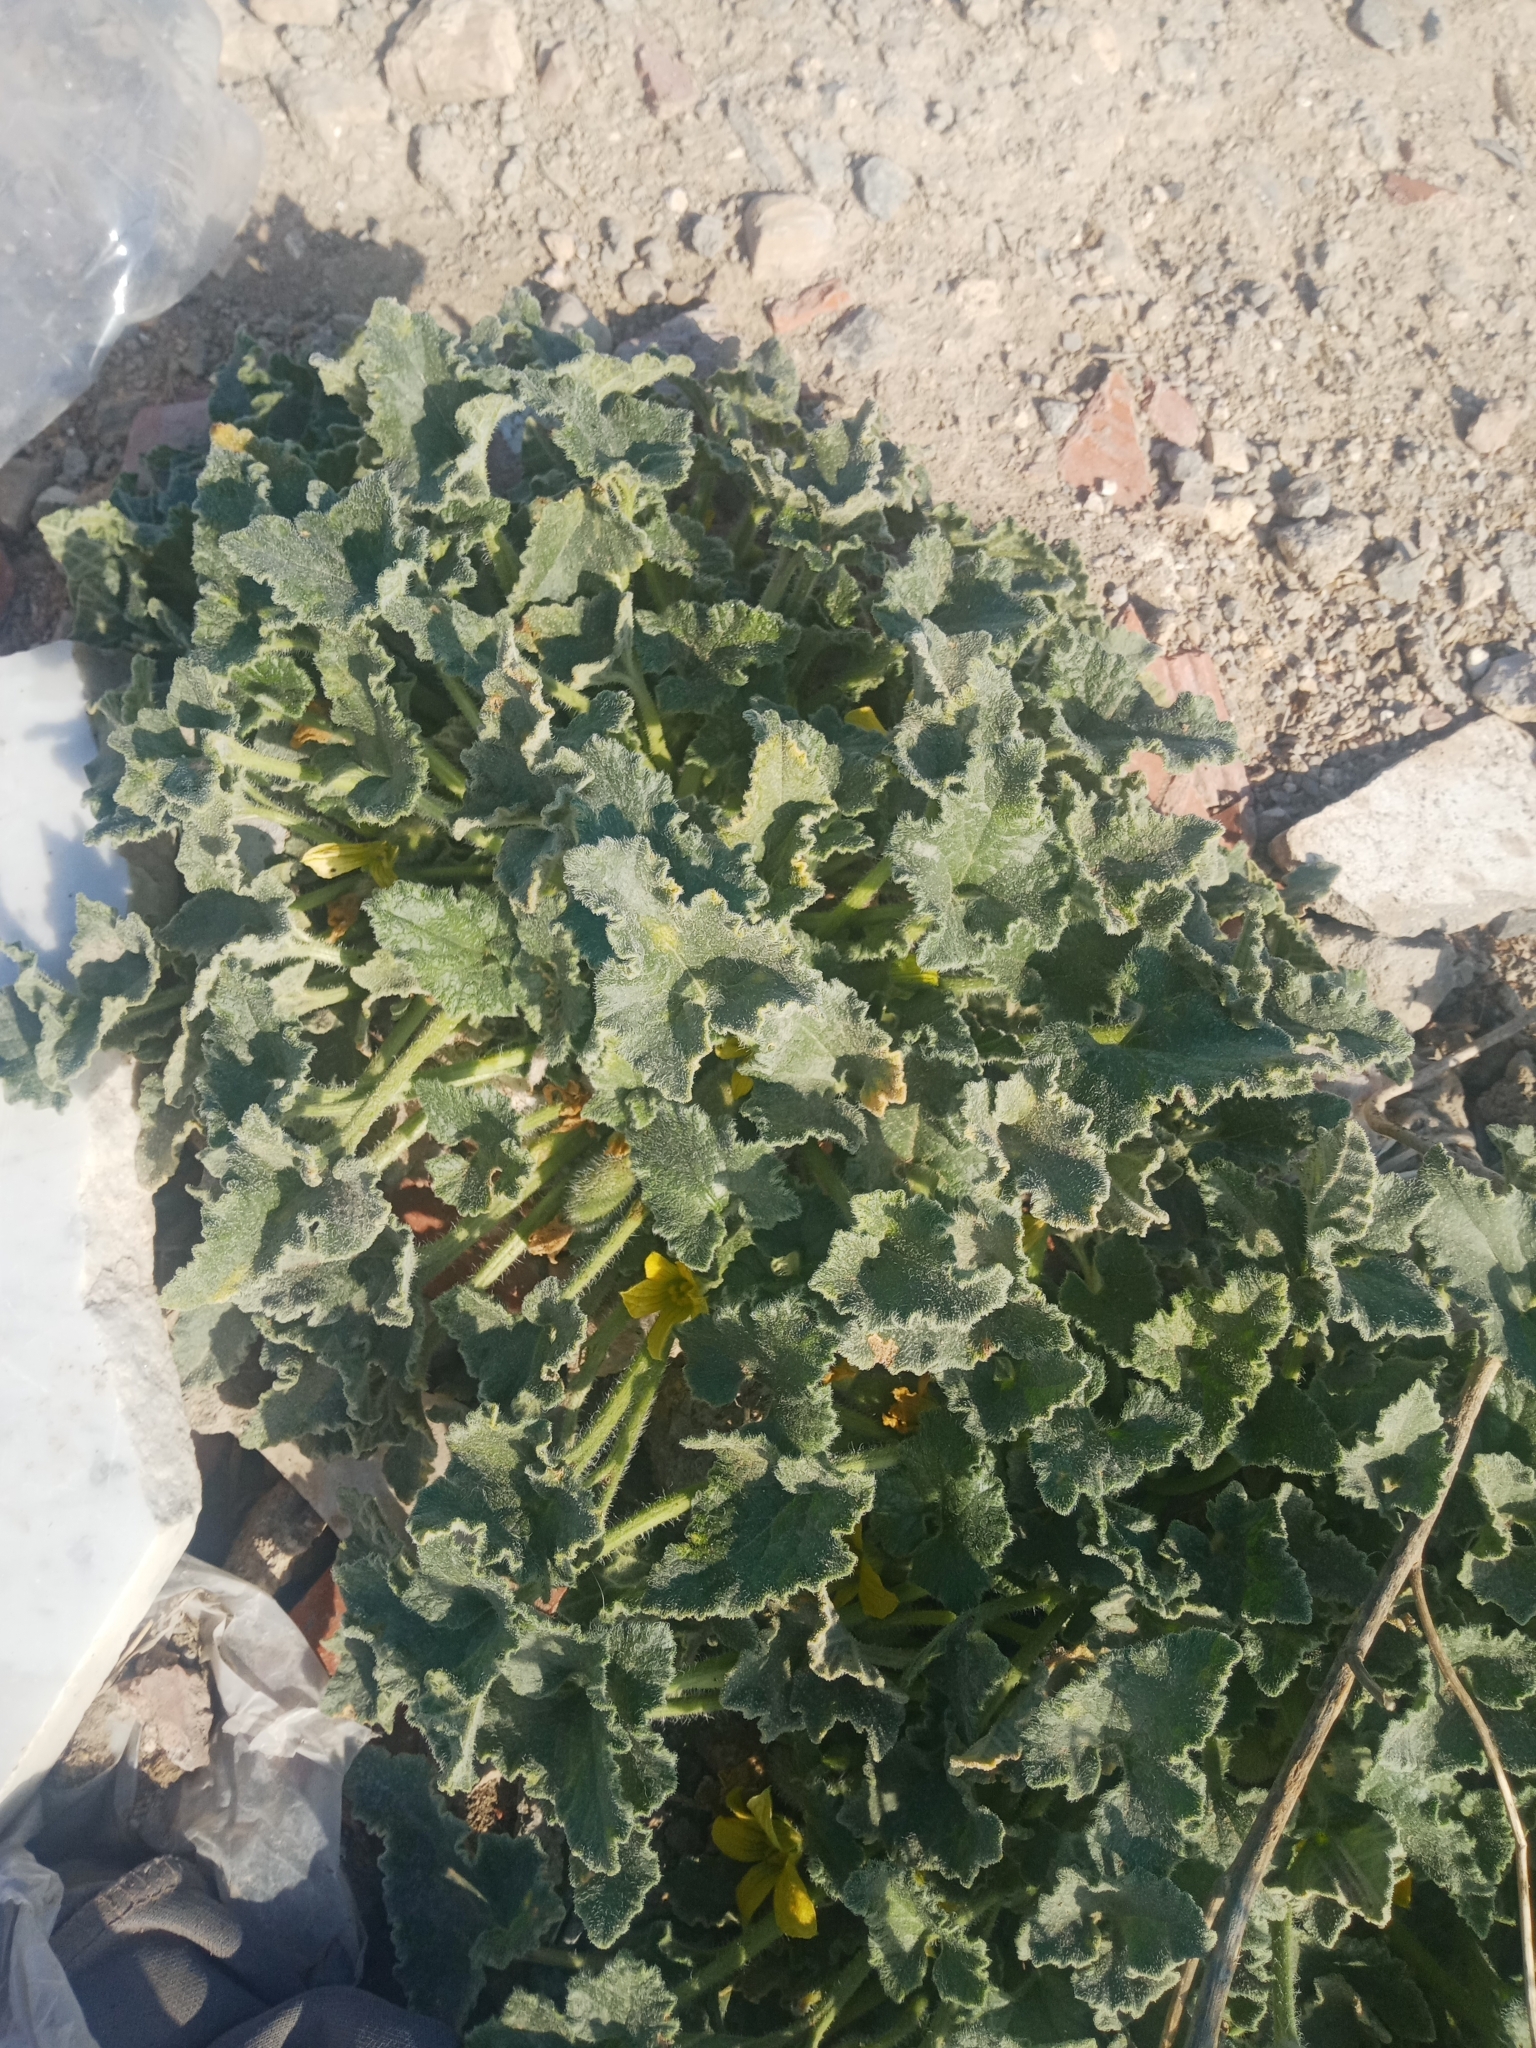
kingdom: Plantae
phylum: Tracheophyta
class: Magnoliopsida
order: Cucurbitales
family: Cucurbitaceae
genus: Ecballium
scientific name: Ecballium elaterium
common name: Squirting cucumber
